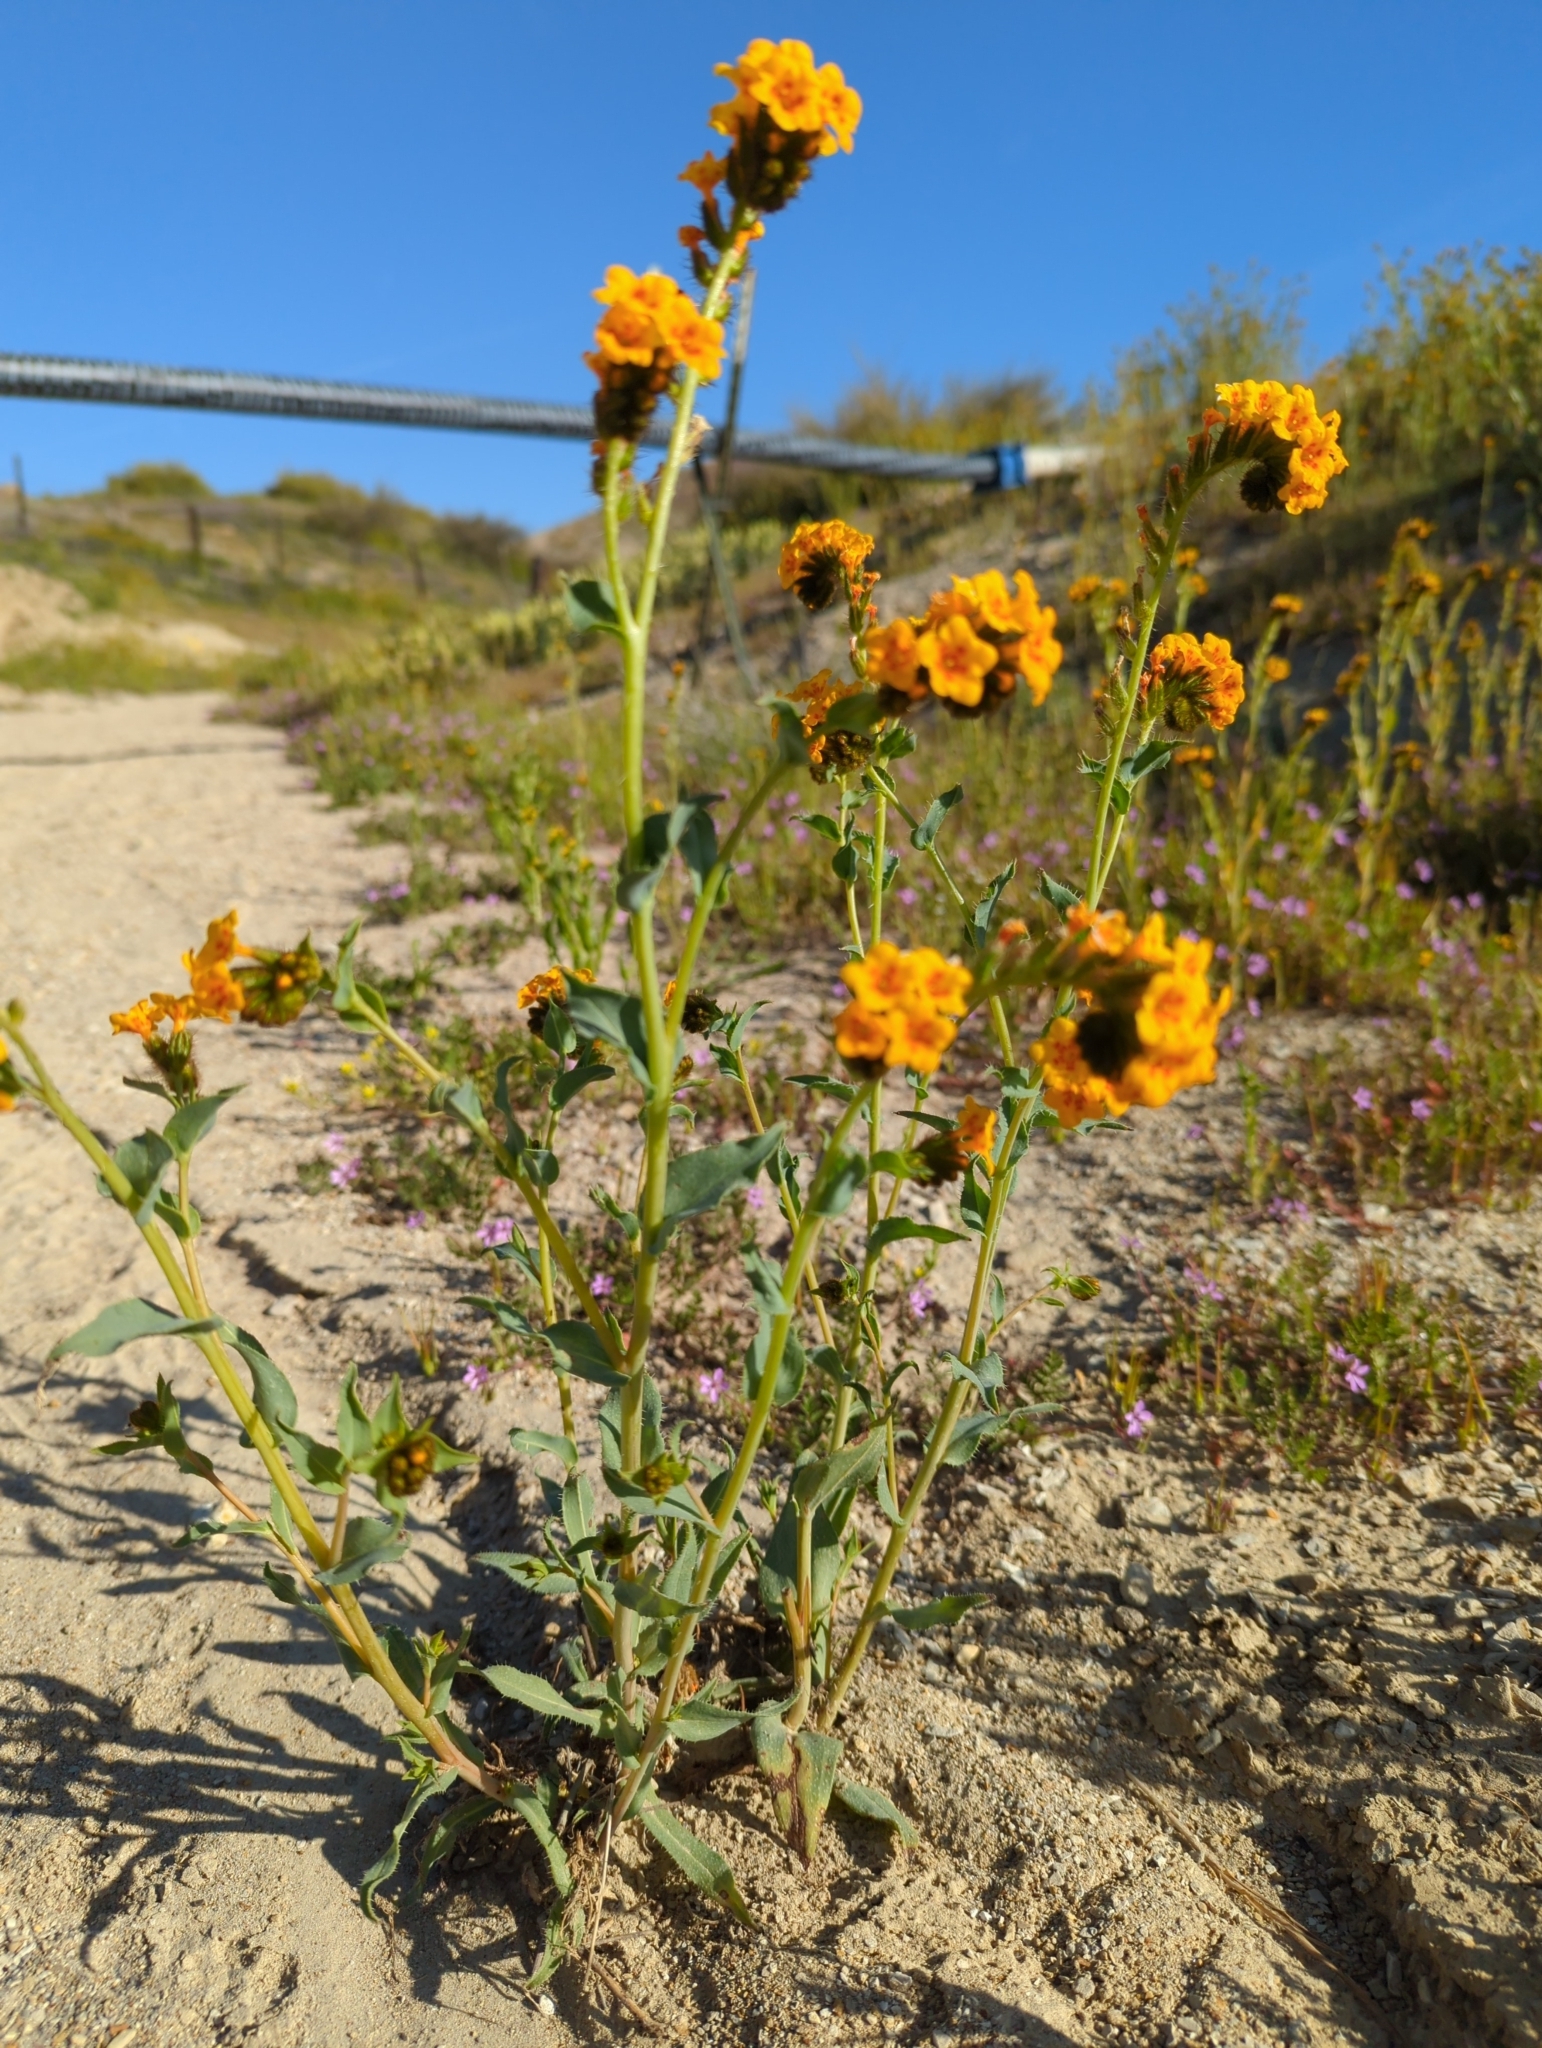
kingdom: Plantae
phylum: Tracheophyta
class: Magnoliopsida
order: Boraginales
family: Boraginaceae
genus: Amsinckia
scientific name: Amsinckia vernicosa
